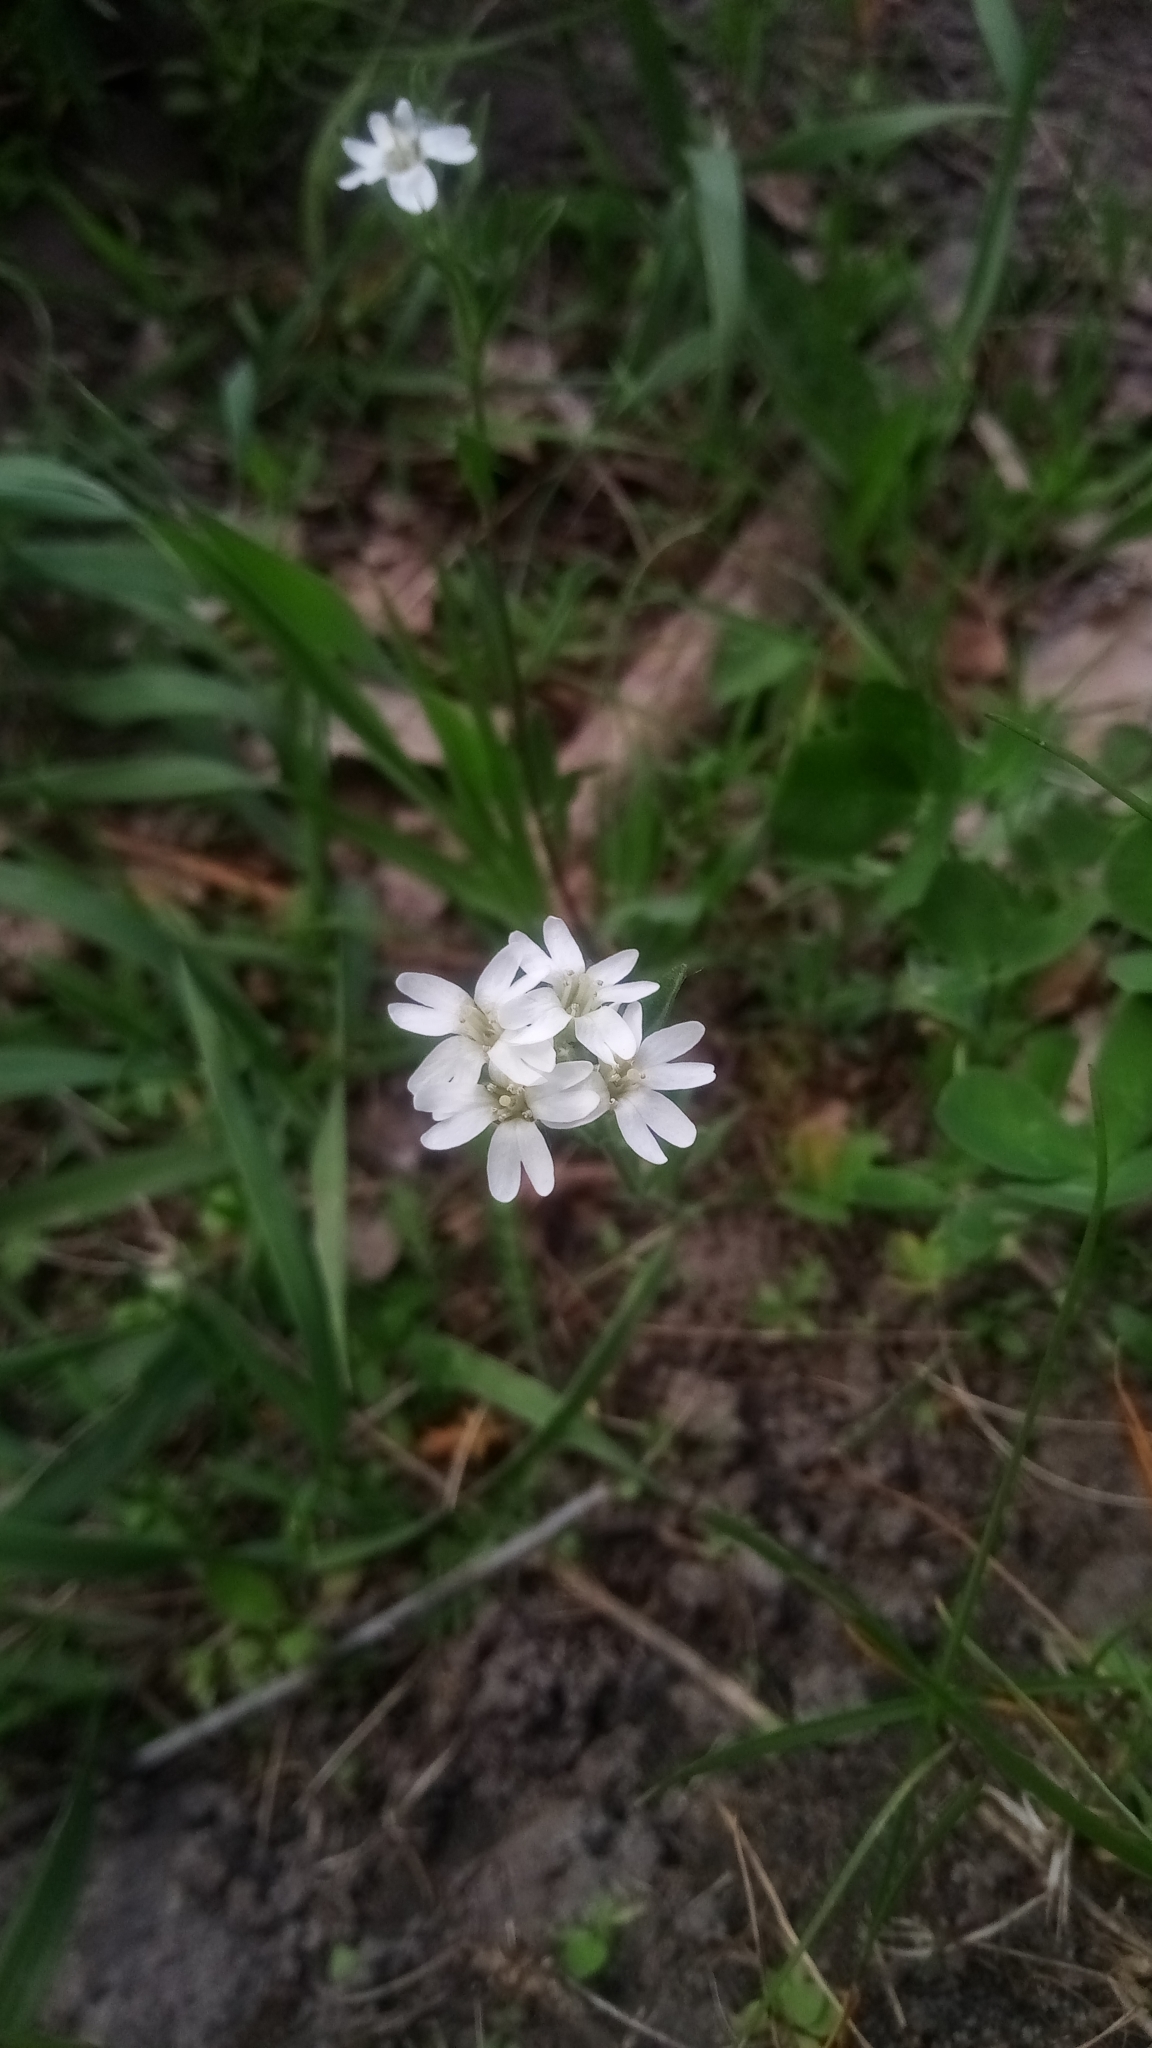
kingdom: Plantae
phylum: Tracheophyta
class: Magnoliopsida
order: Brassicales
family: Brassicaceae
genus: Berteroa
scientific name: Berteroa incana
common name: Hoary alison
